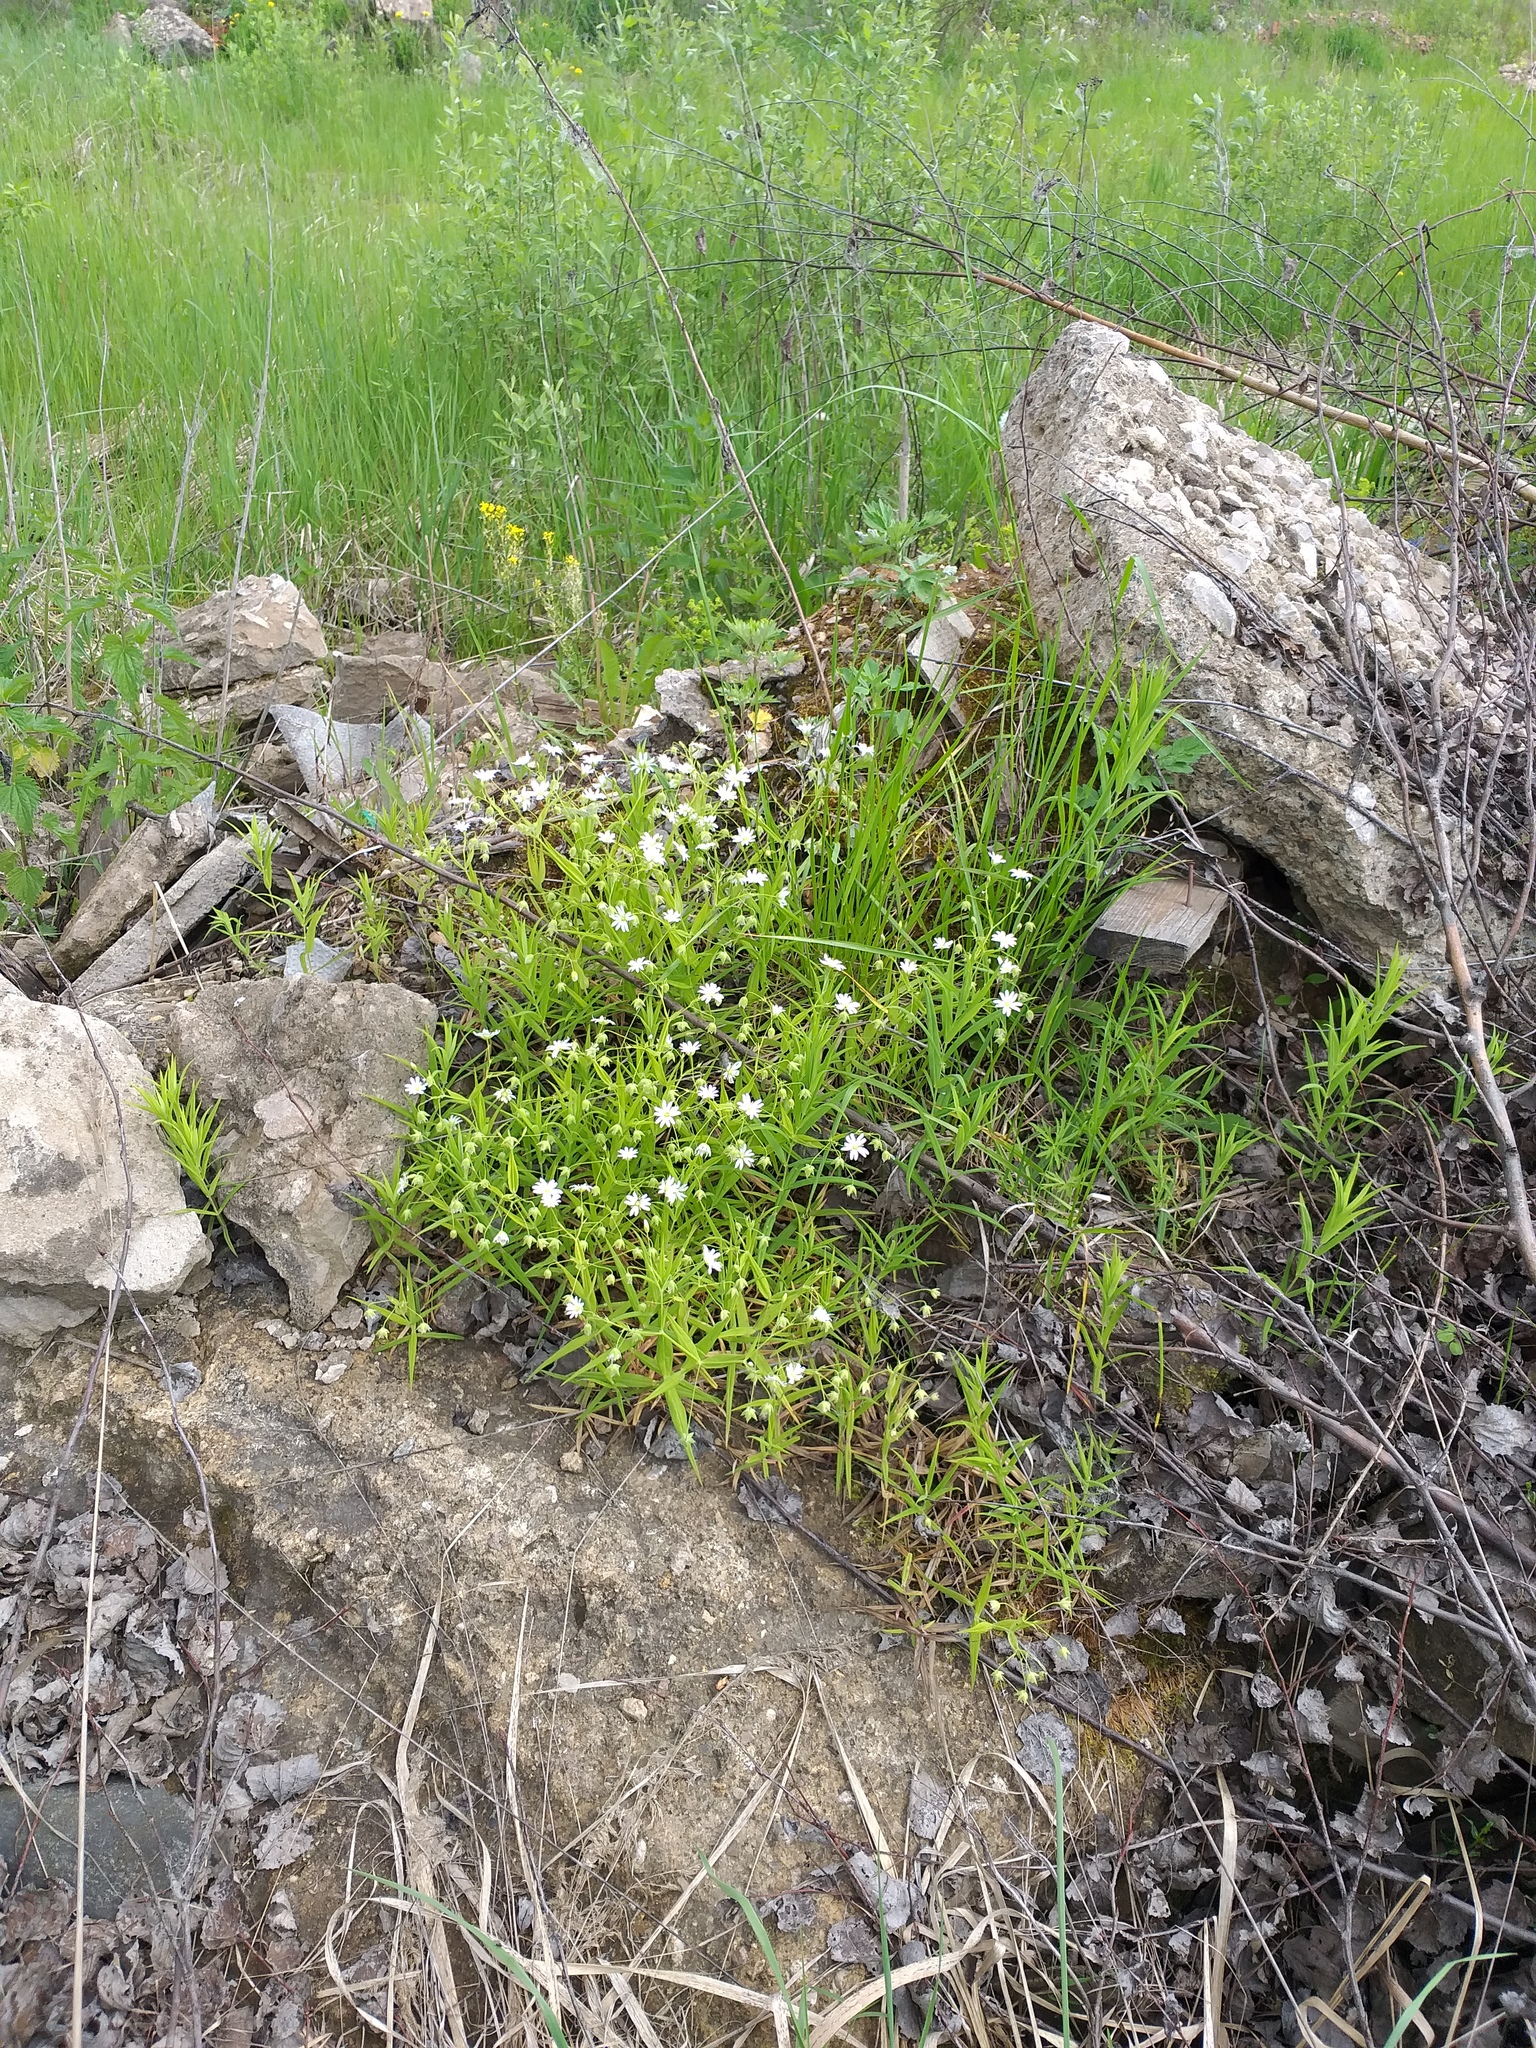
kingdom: Plantae
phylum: Tracheophyta
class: Magnoliopsida
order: Caryophyllales
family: Caryophyllaceae
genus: Rabelera
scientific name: Rabelera holostea
